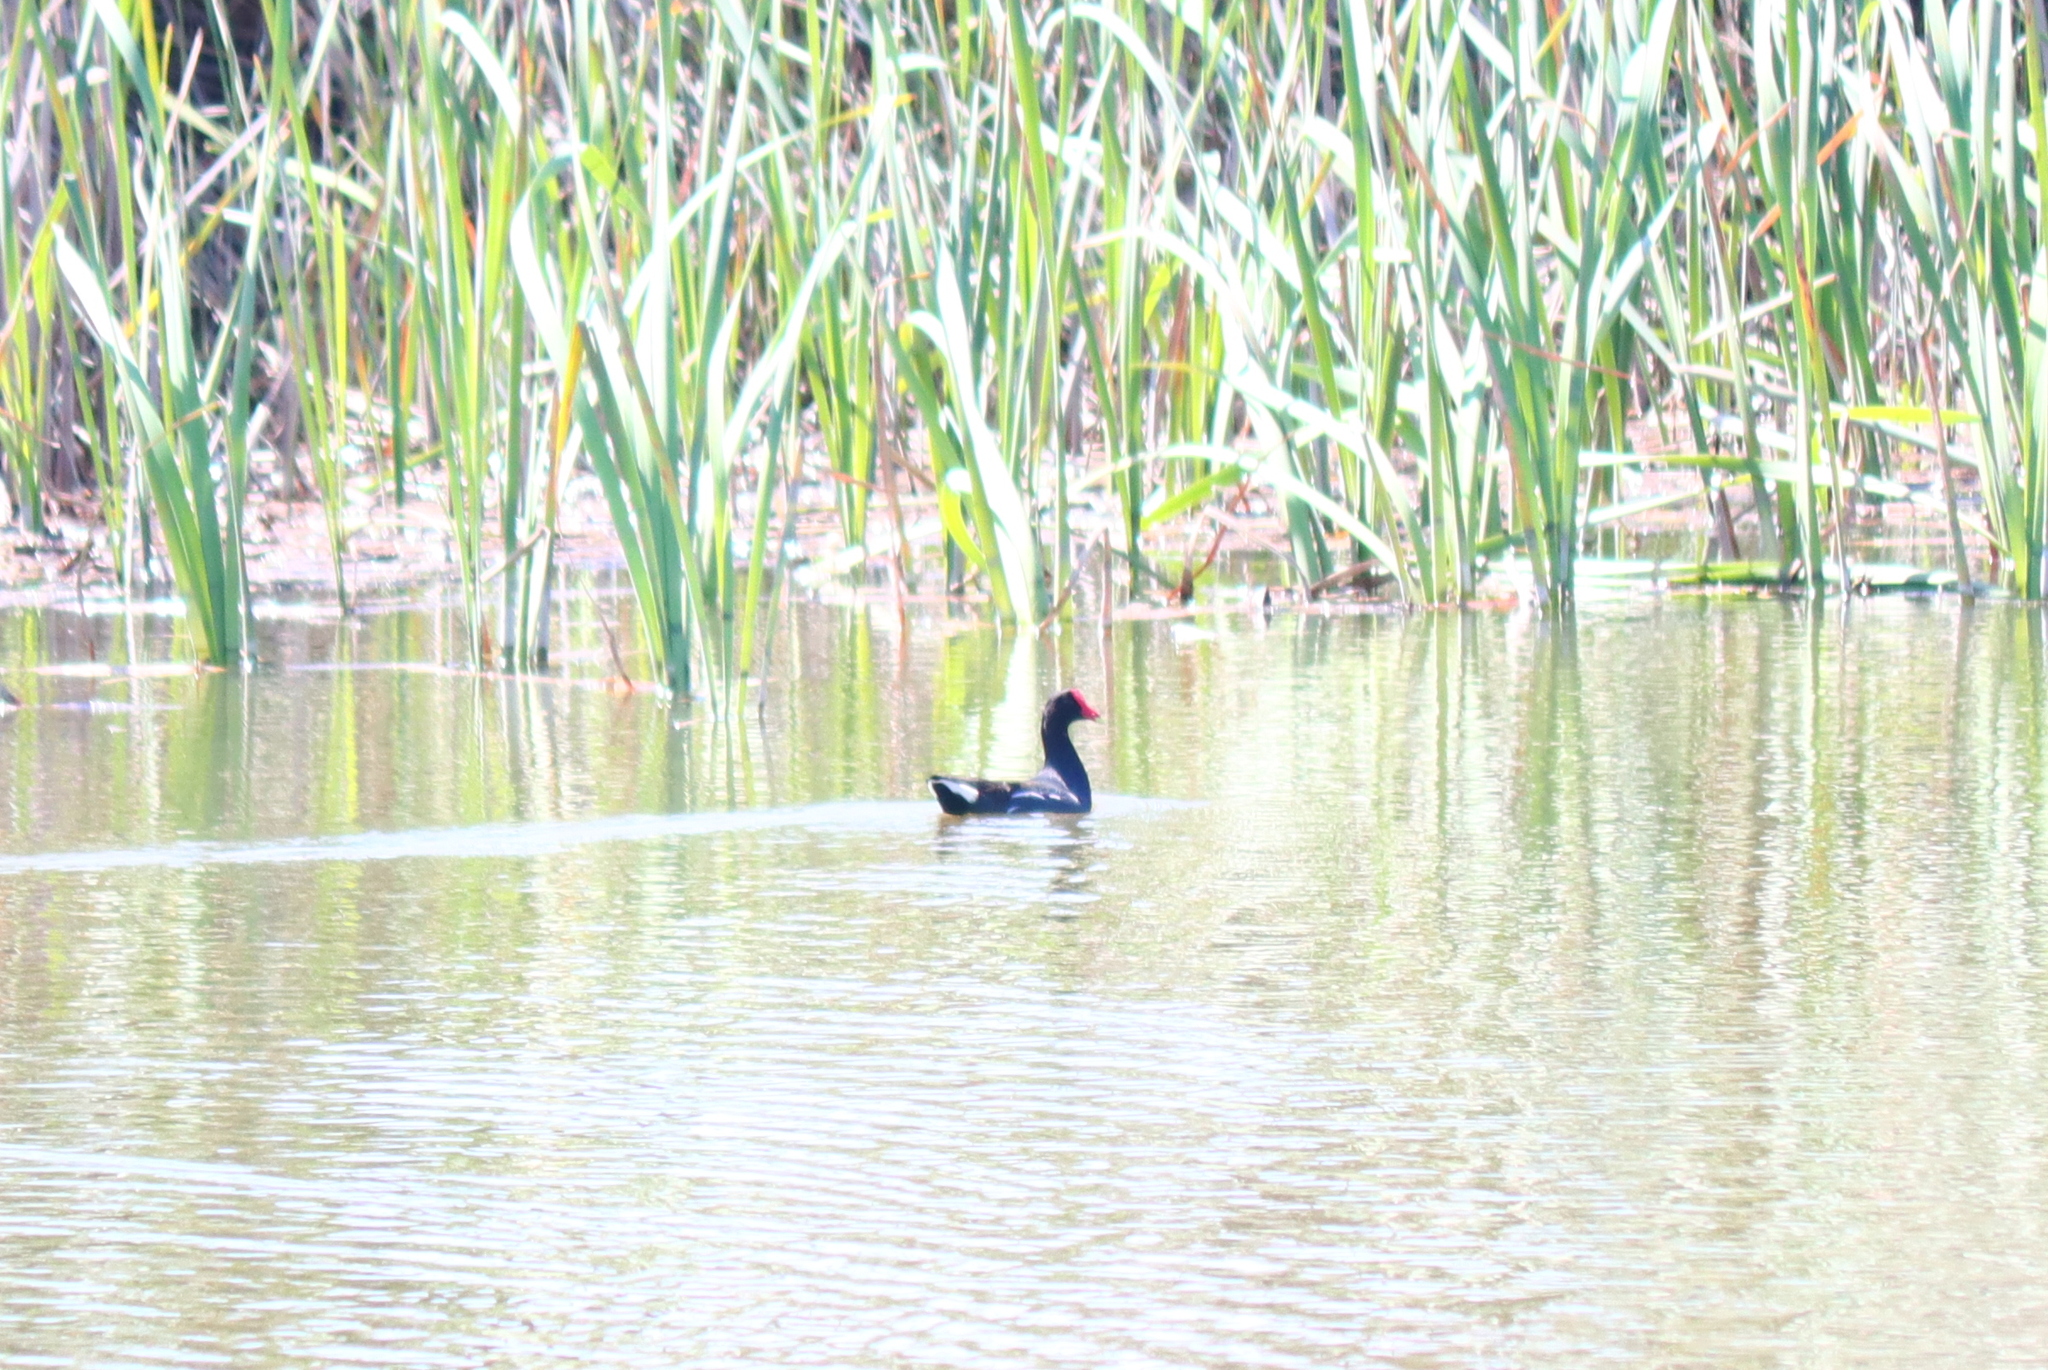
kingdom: Animalia
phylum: Chordata
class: Aves
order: Gruiformes
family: Rallidae
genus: Gallinula
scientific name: Gallinula chloropus
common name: Common moorhen
